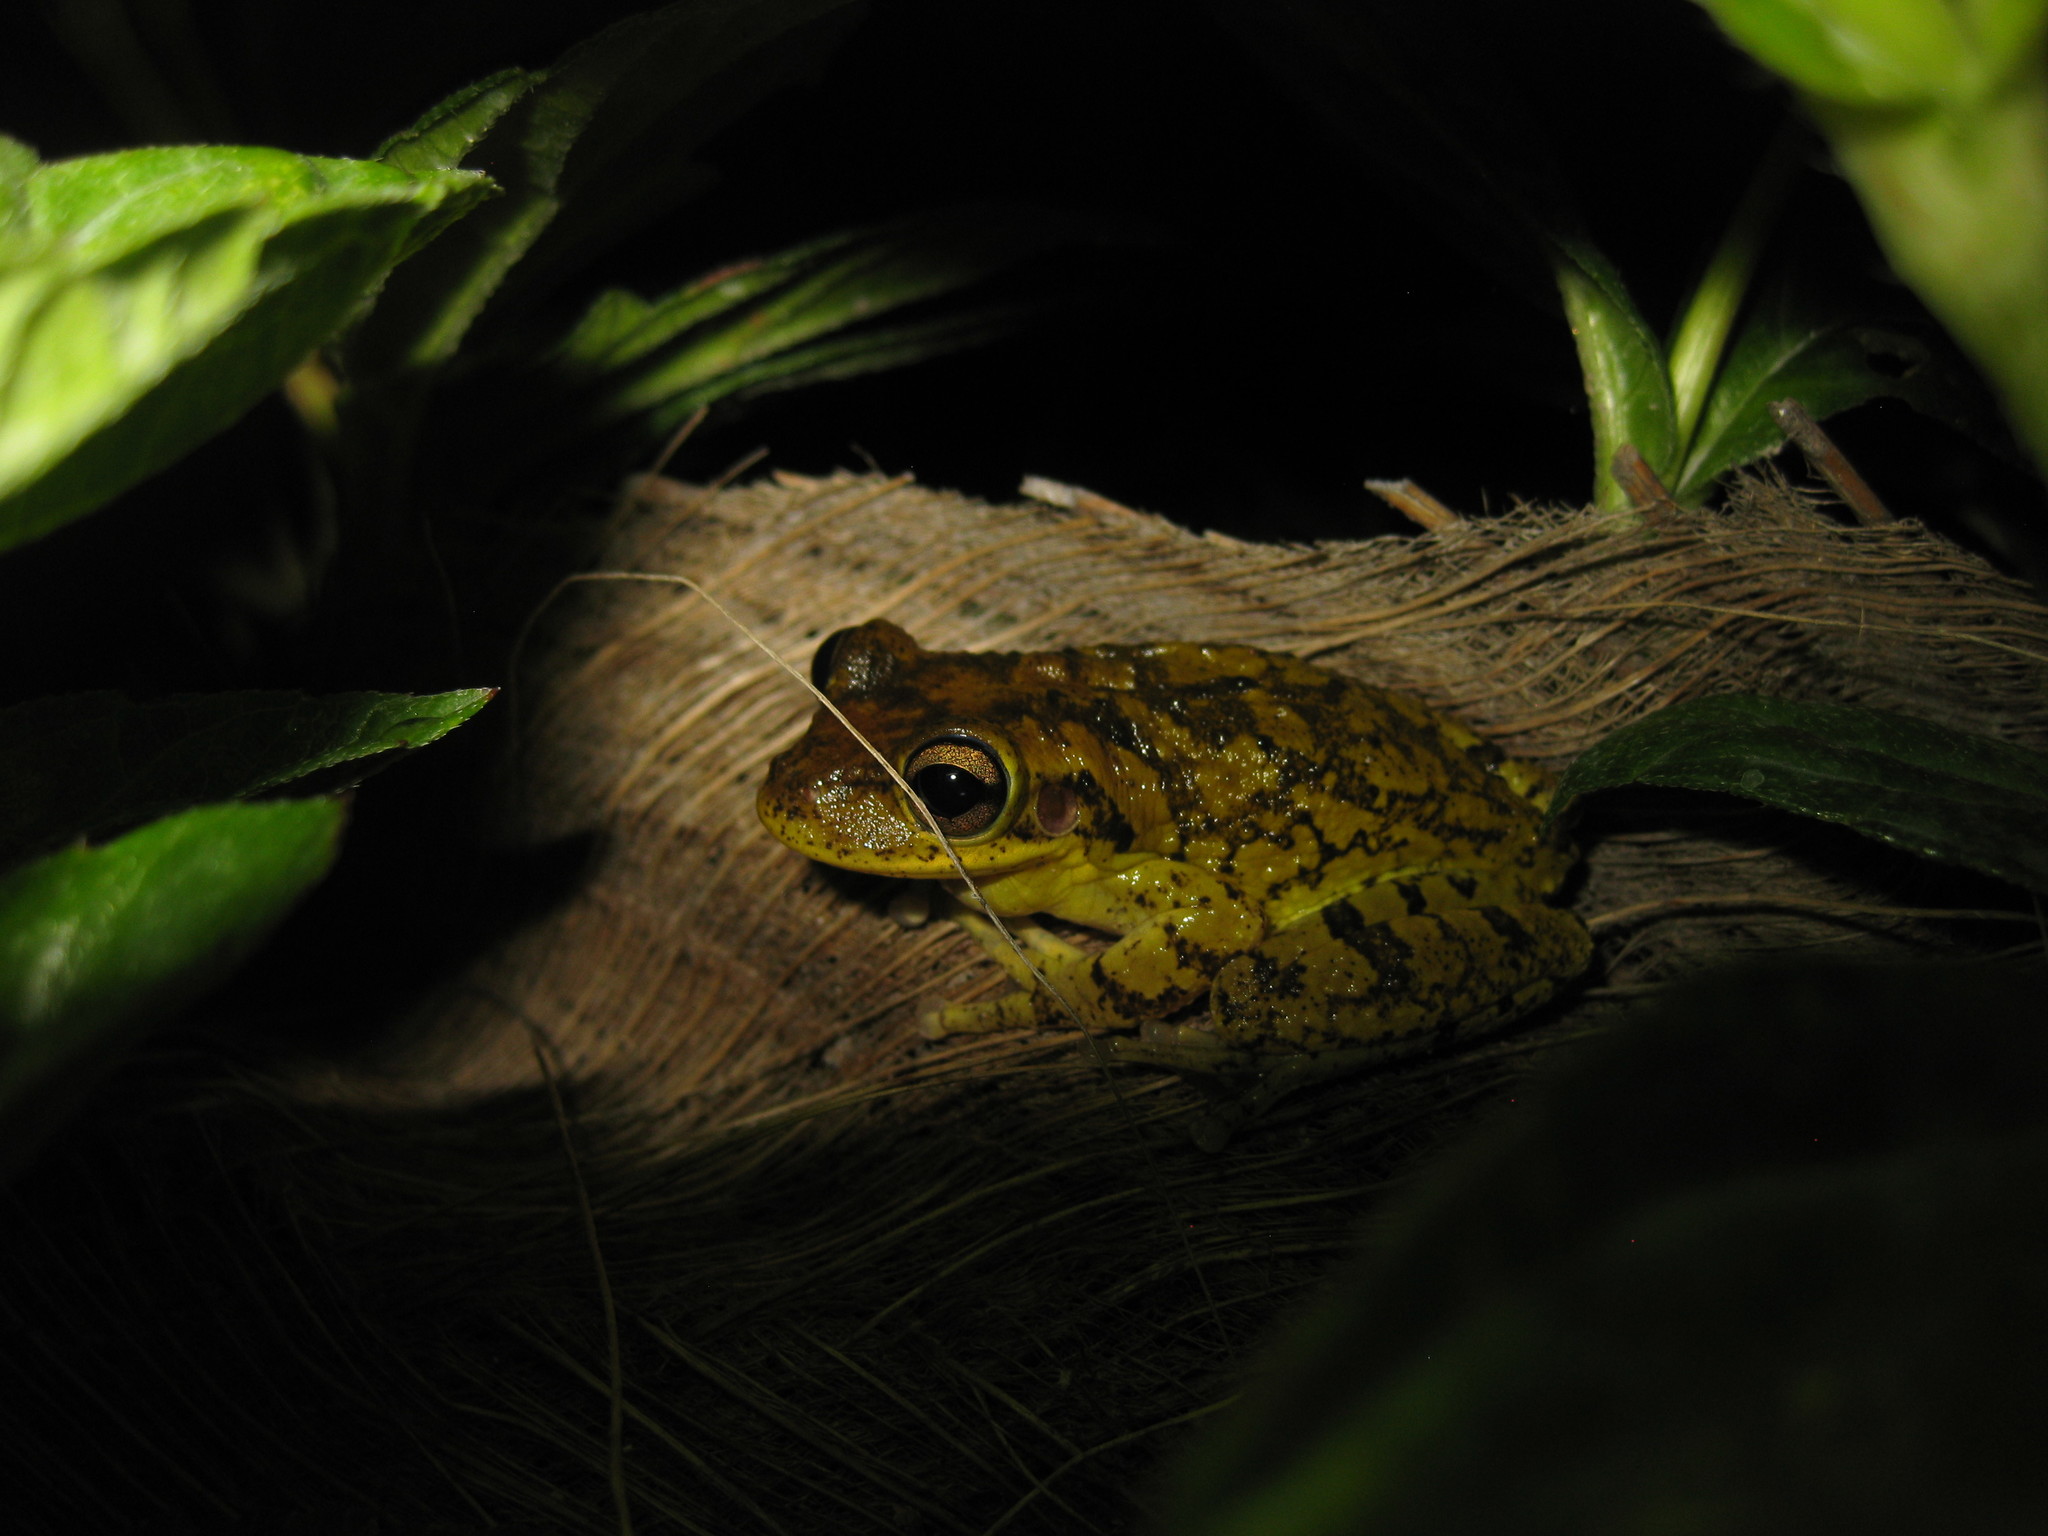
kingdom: Animalia
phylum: Chordata
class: Amphibia
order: Anura
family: Hylidae
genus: Osteopilus
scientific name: Osteopilus septentrionalis
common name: Cuban treefrog
